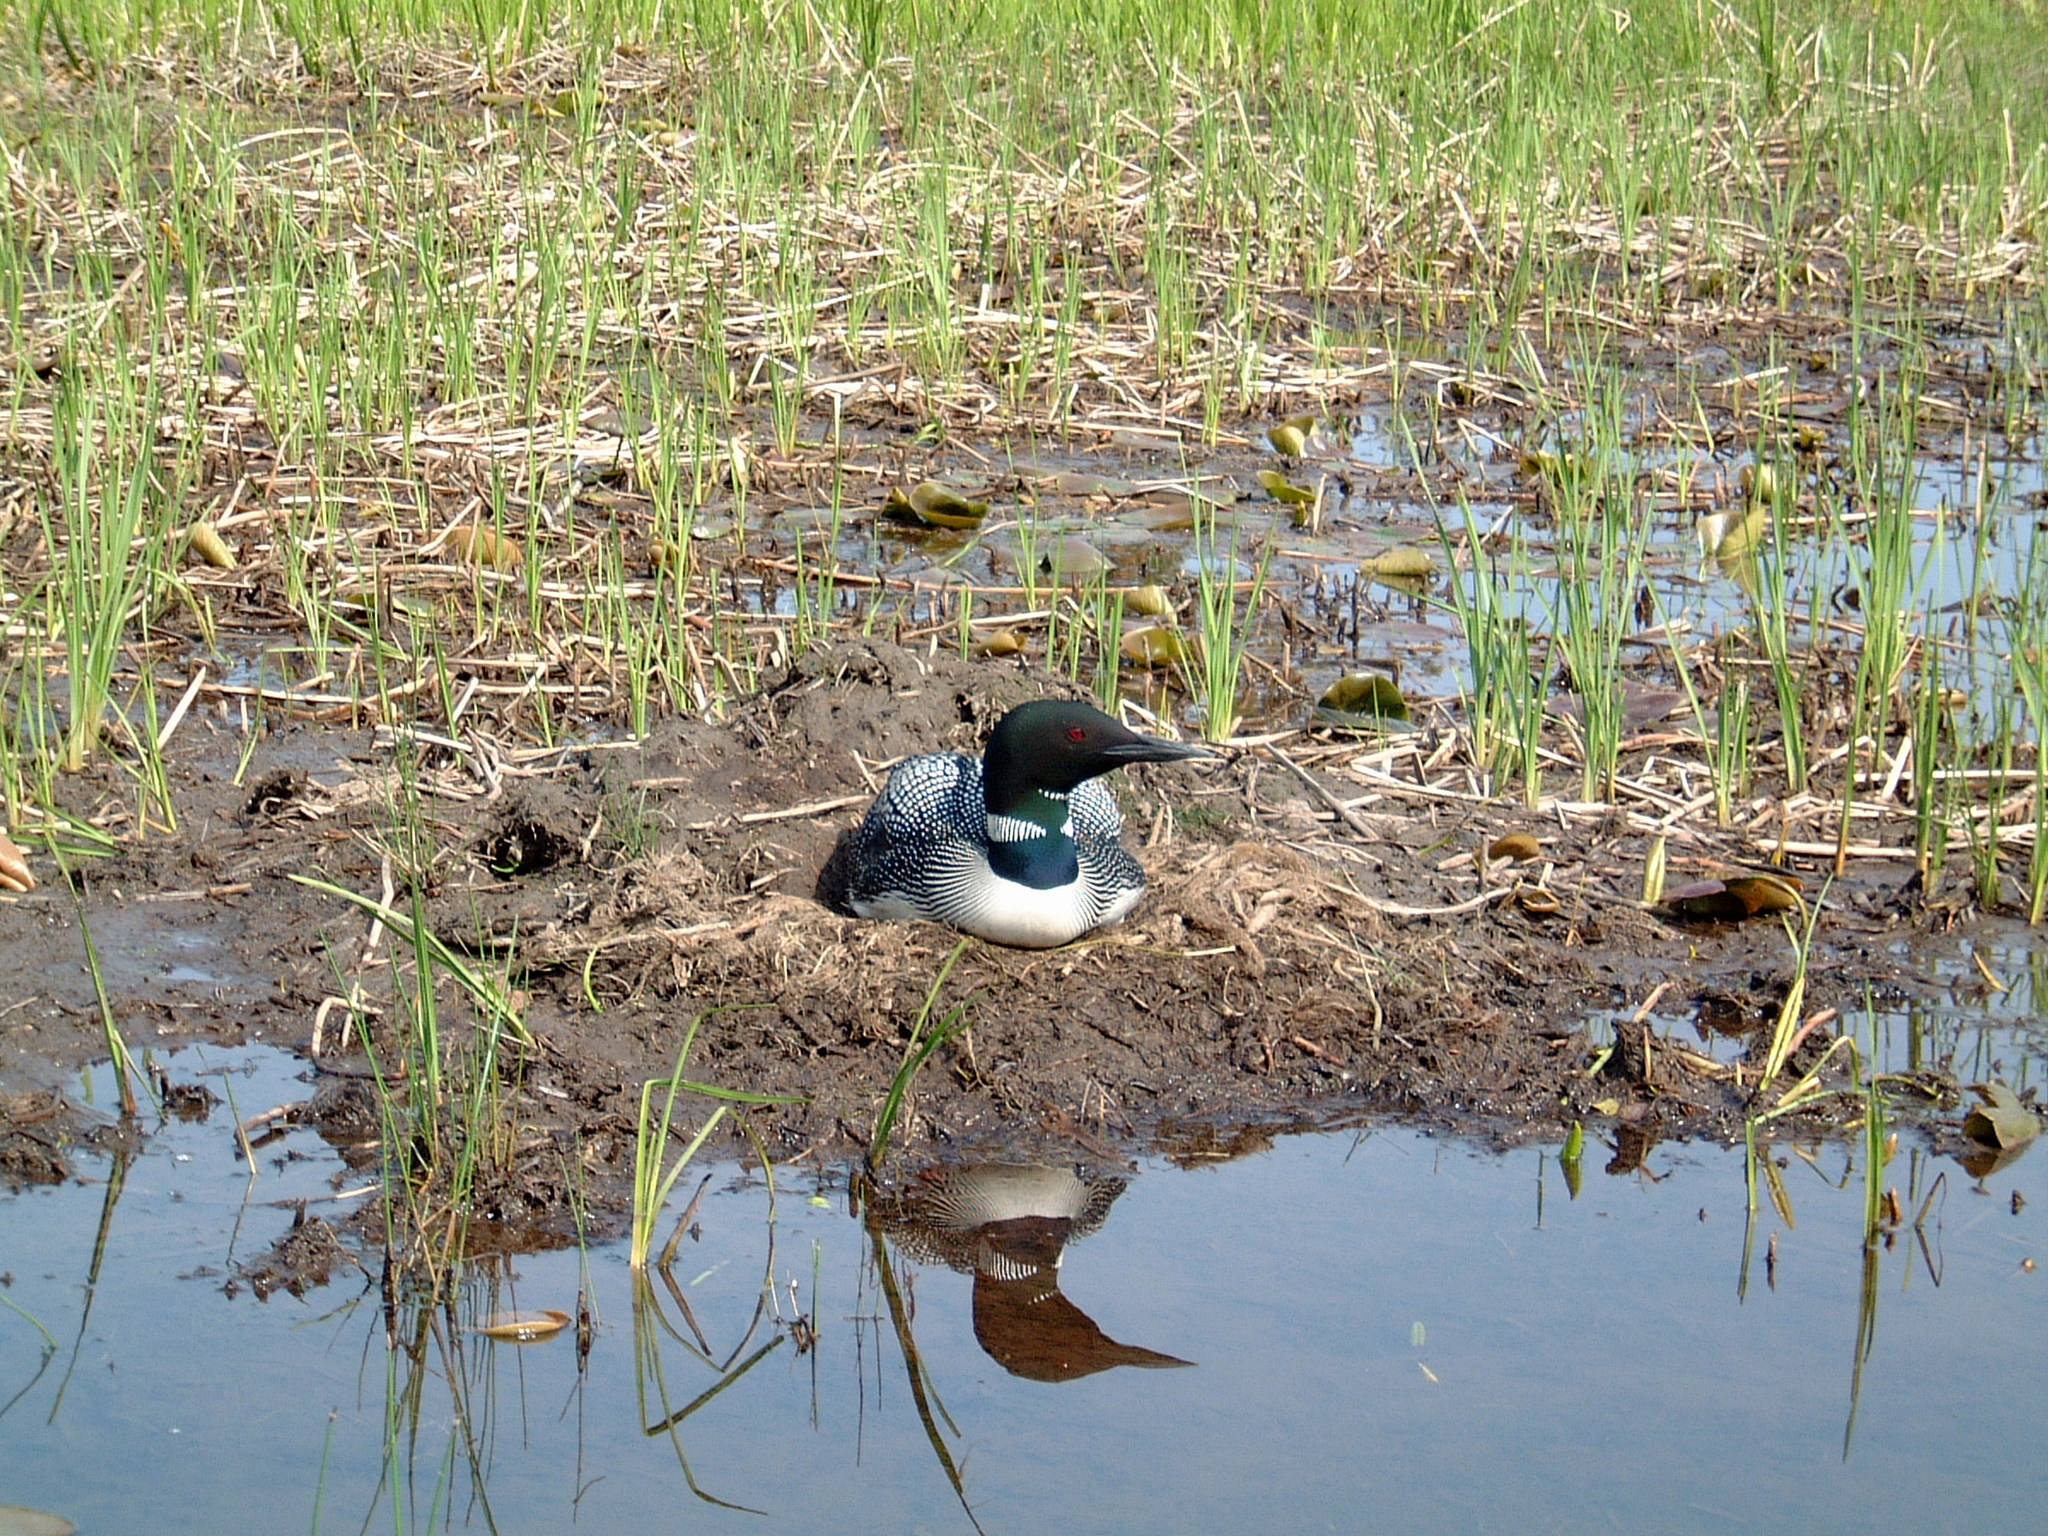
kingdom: Animalia
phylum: Chordata
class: Aves
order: Gaviiformes
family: Gaviidae
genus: Gavia
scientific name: Gavia immer
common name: Common loon
